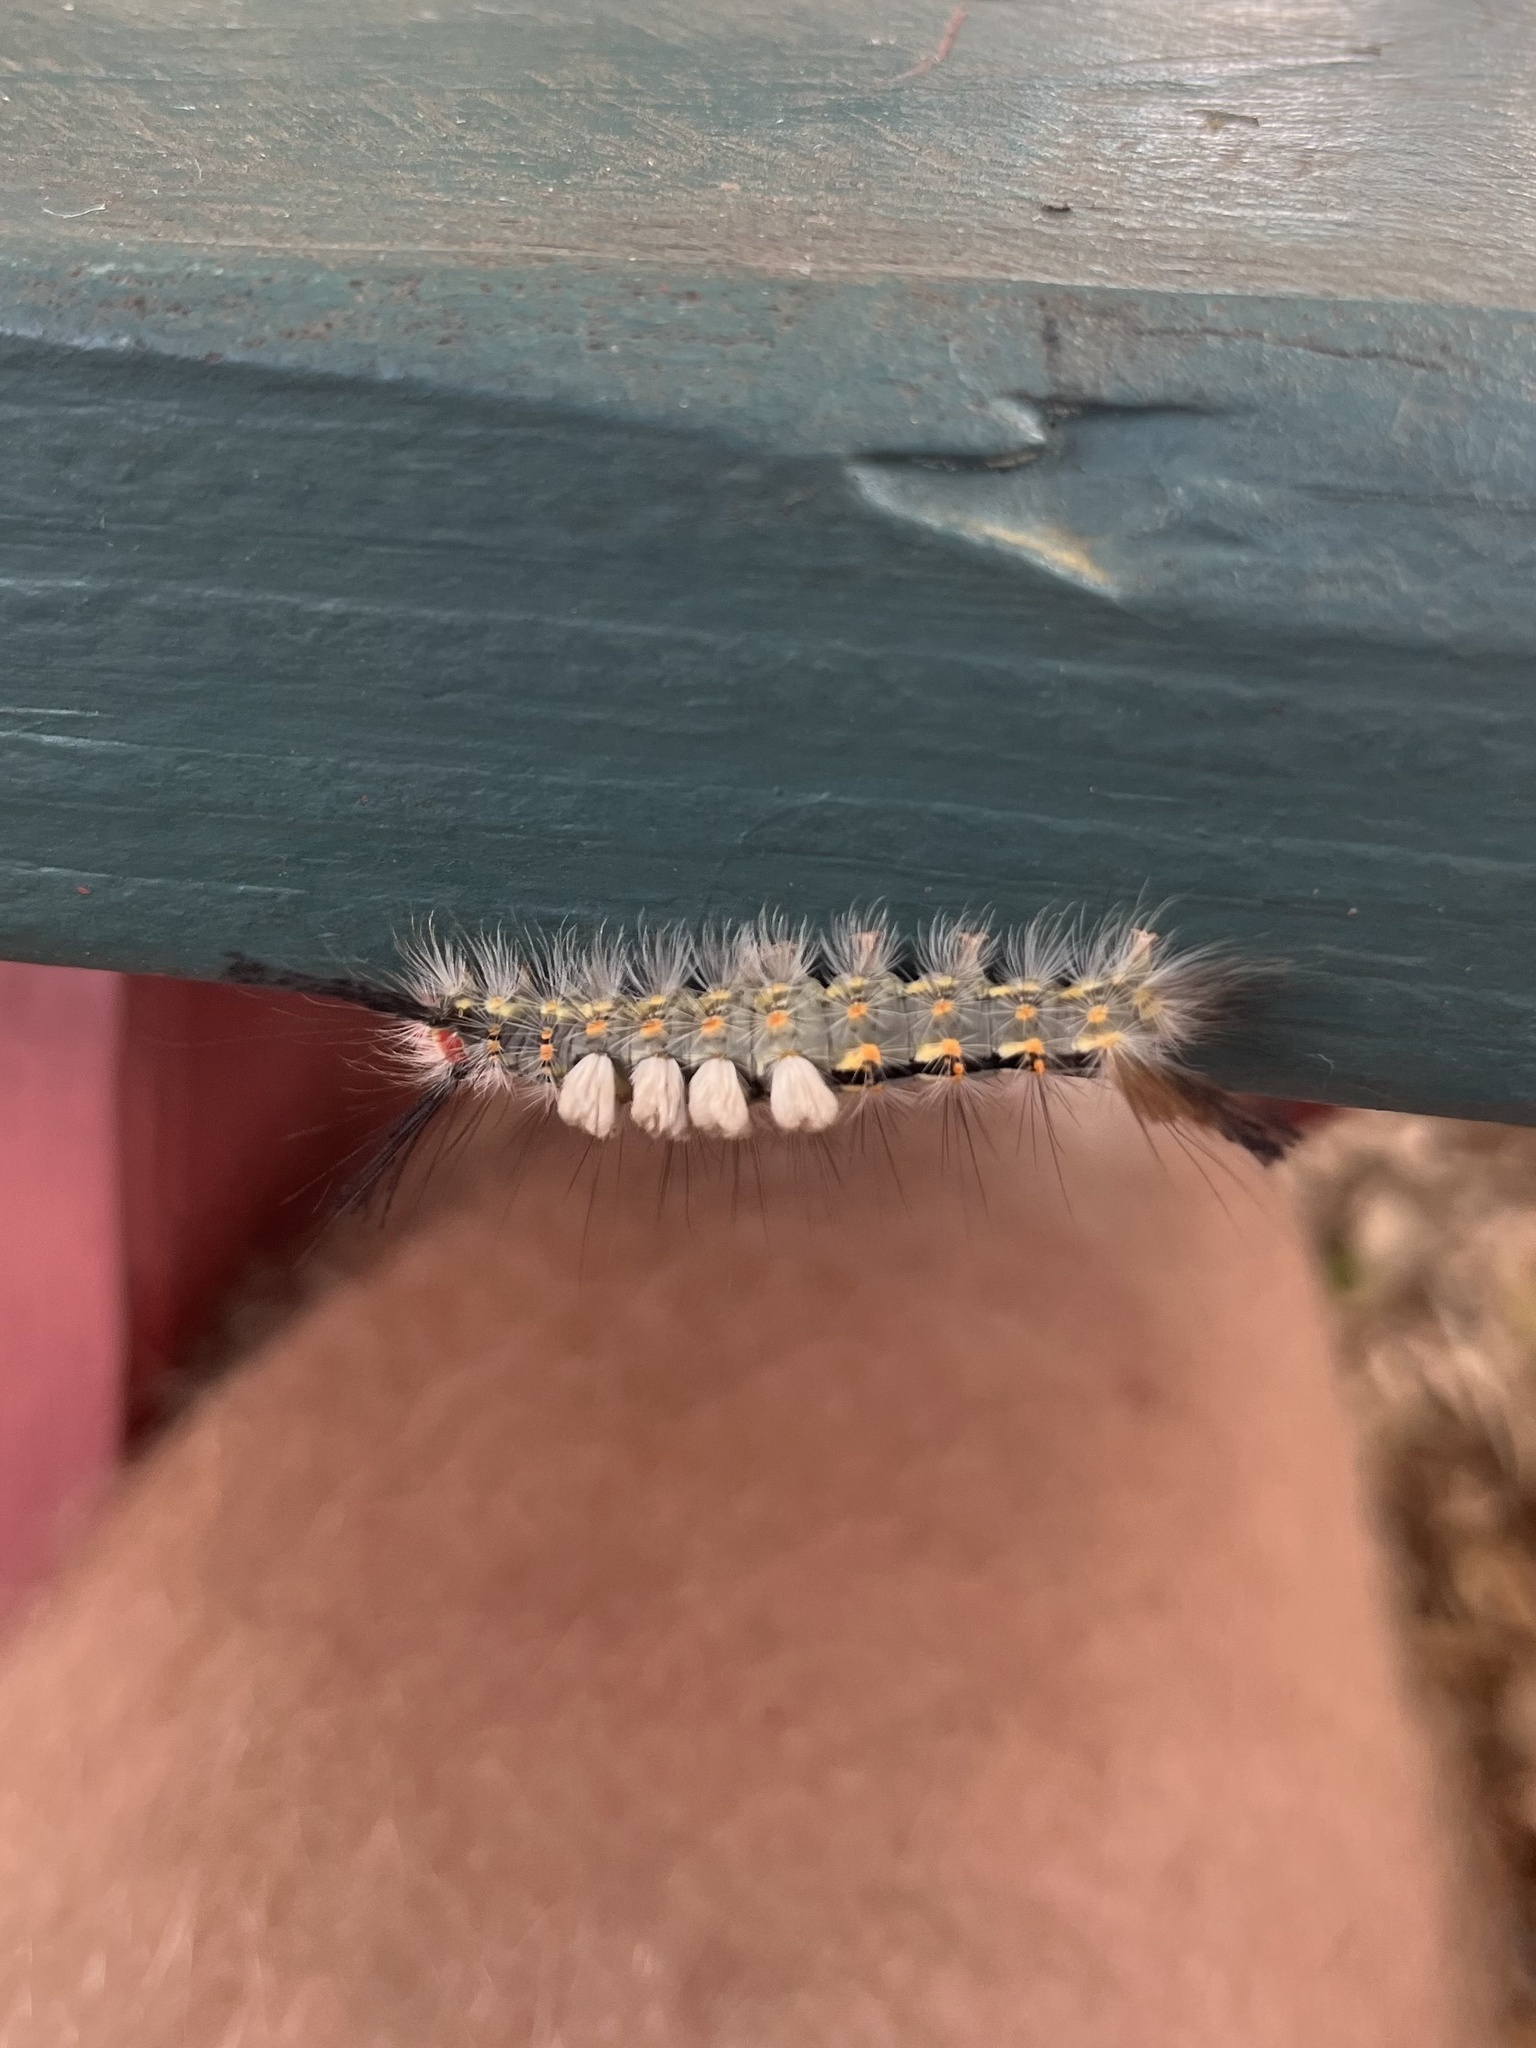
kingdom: Animalia
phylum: Arthropoda
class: Insecta
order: Lepidoptera
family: Erebidae
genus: Orgyia
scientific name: Orgyia detrita
